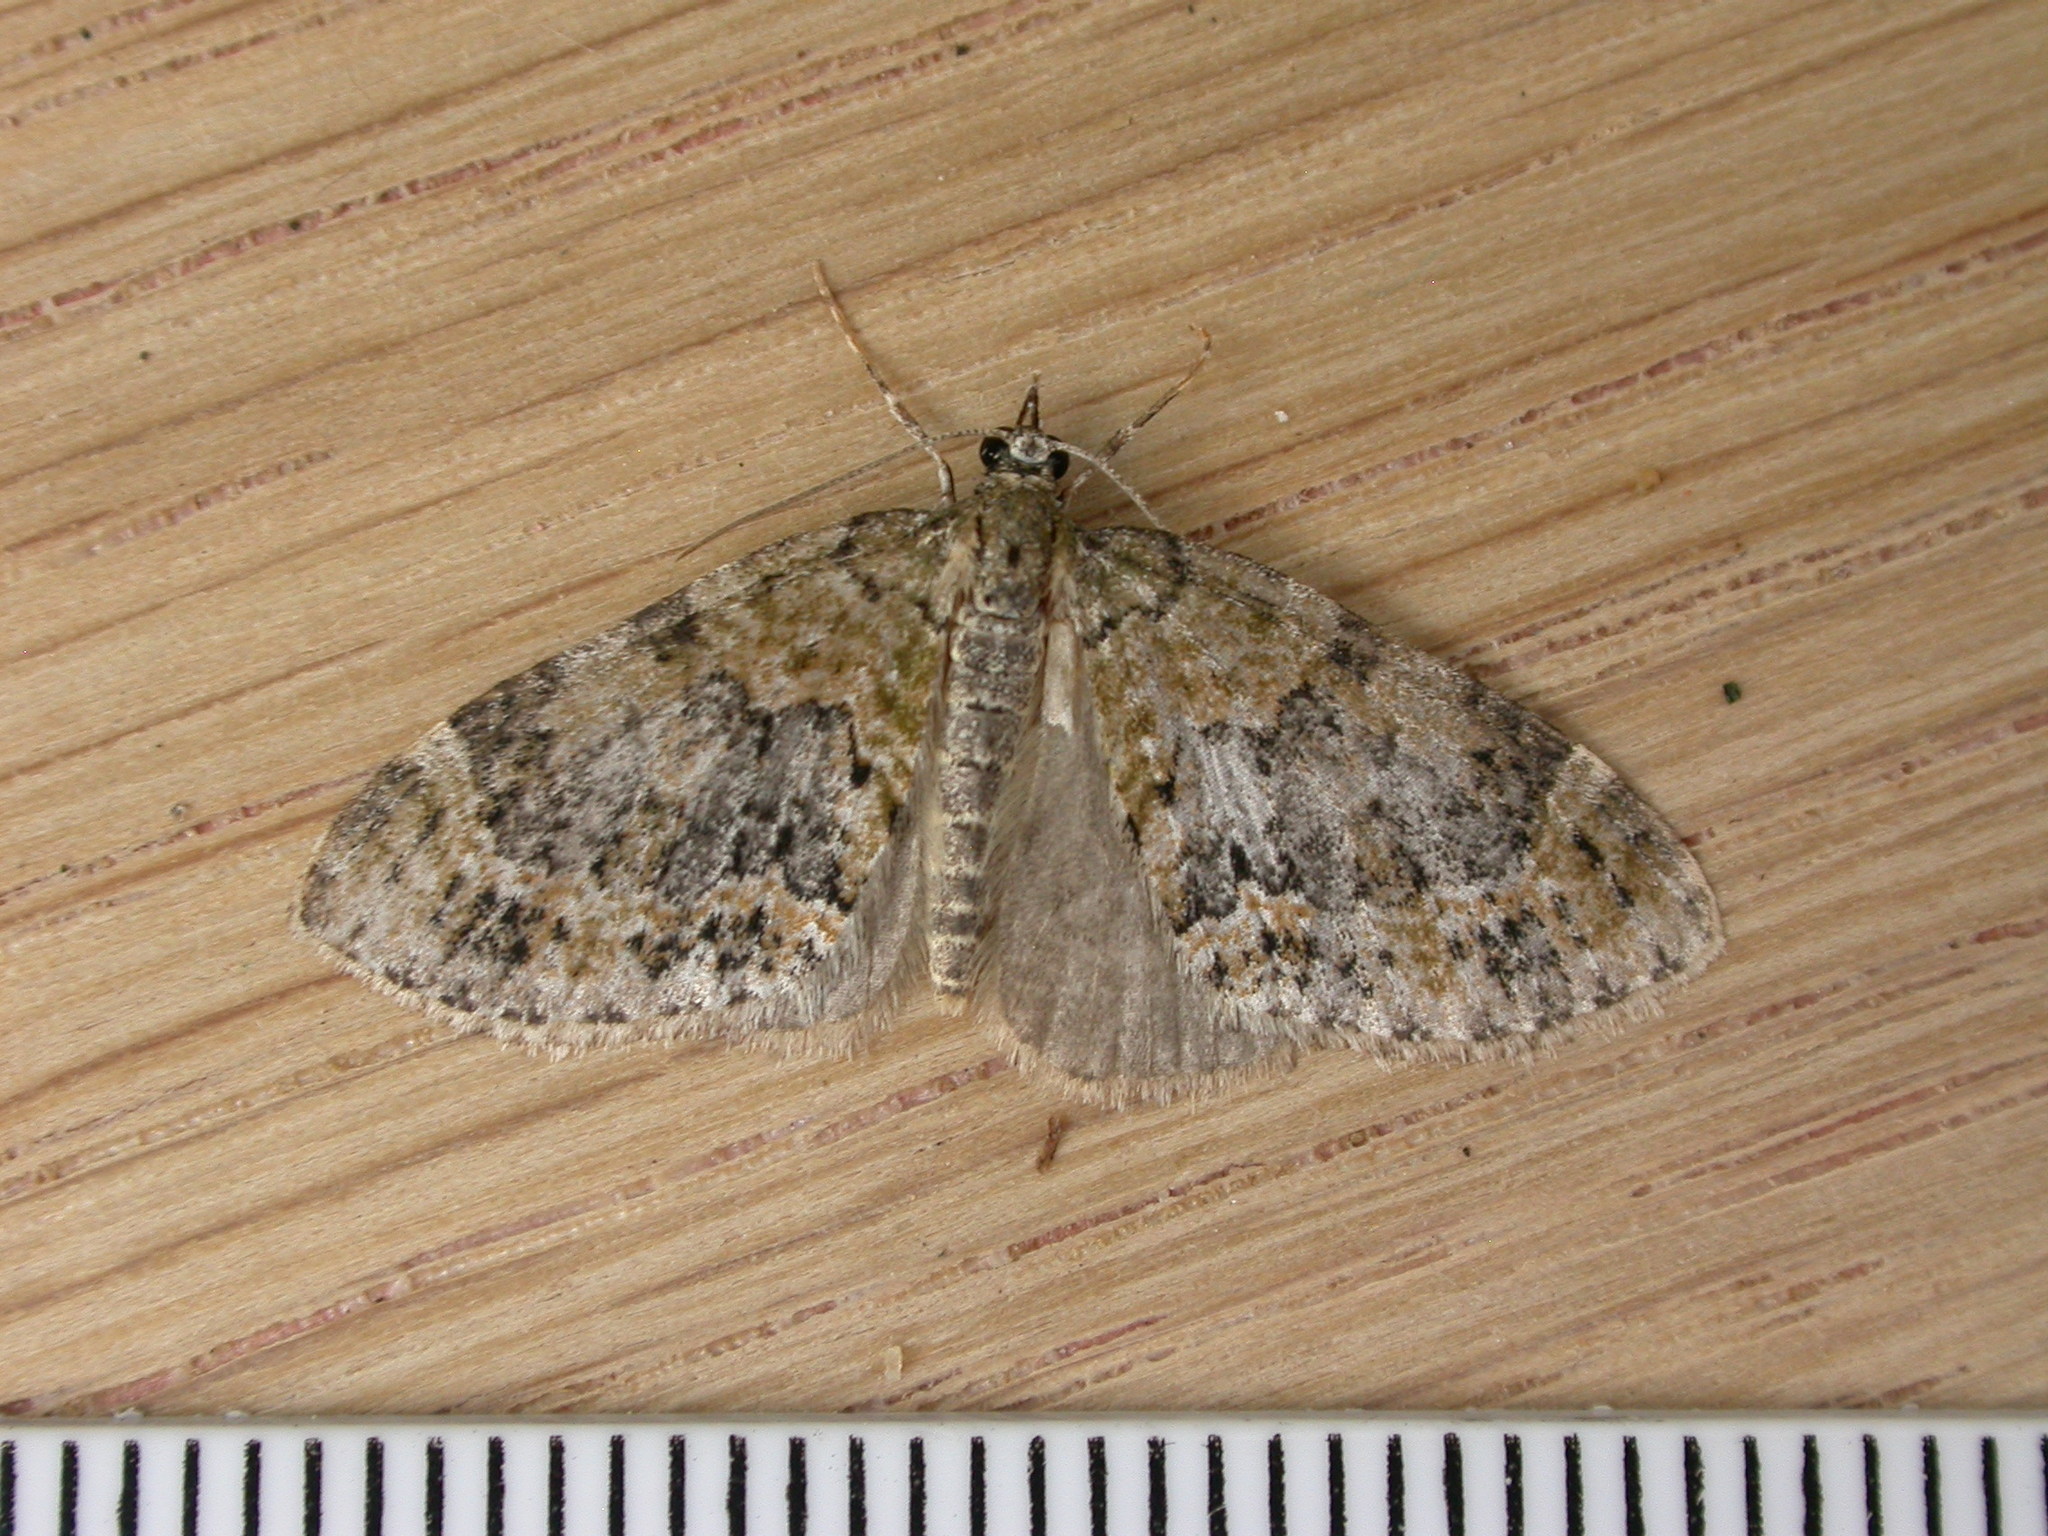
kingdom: Animalia
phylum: Arthropoda
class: Insecta
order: Lepidoptera
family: Geometridae
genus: Acasis
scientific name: Acasis viretata
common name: Yellow-barred brindle
